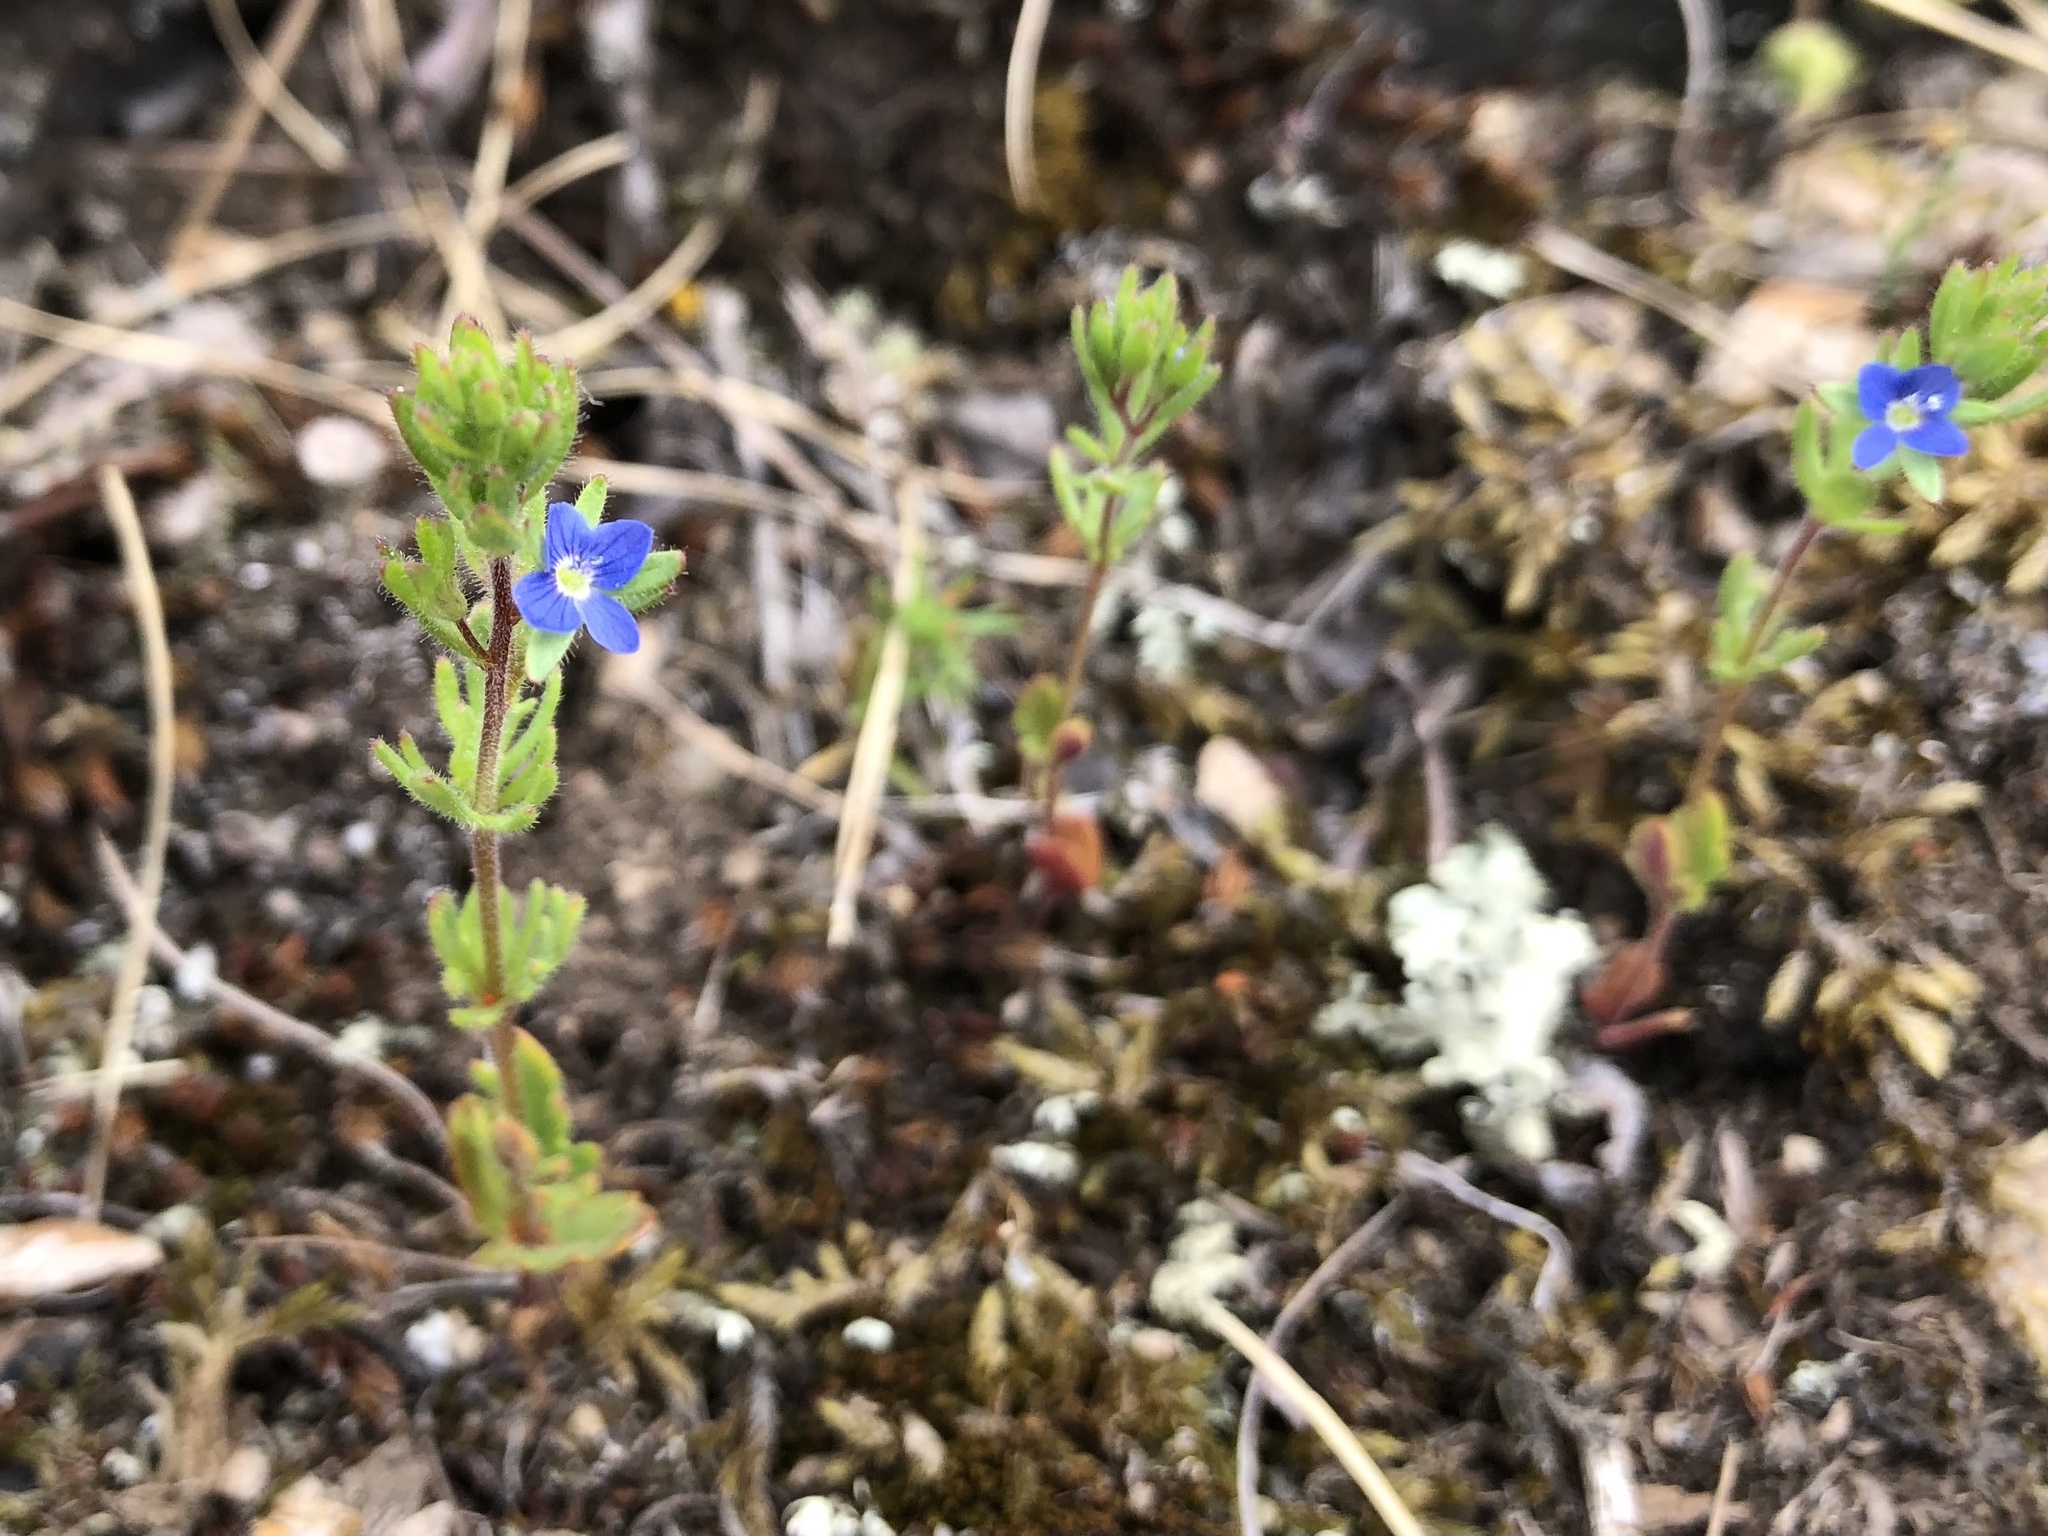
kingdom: Plantae
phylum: Tracheophyta
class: Magnoliopsida
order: Lamiales
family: Plantaginaceae
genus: Veronica
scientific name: Veronica dillenii
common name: Dillenius' speedwell
